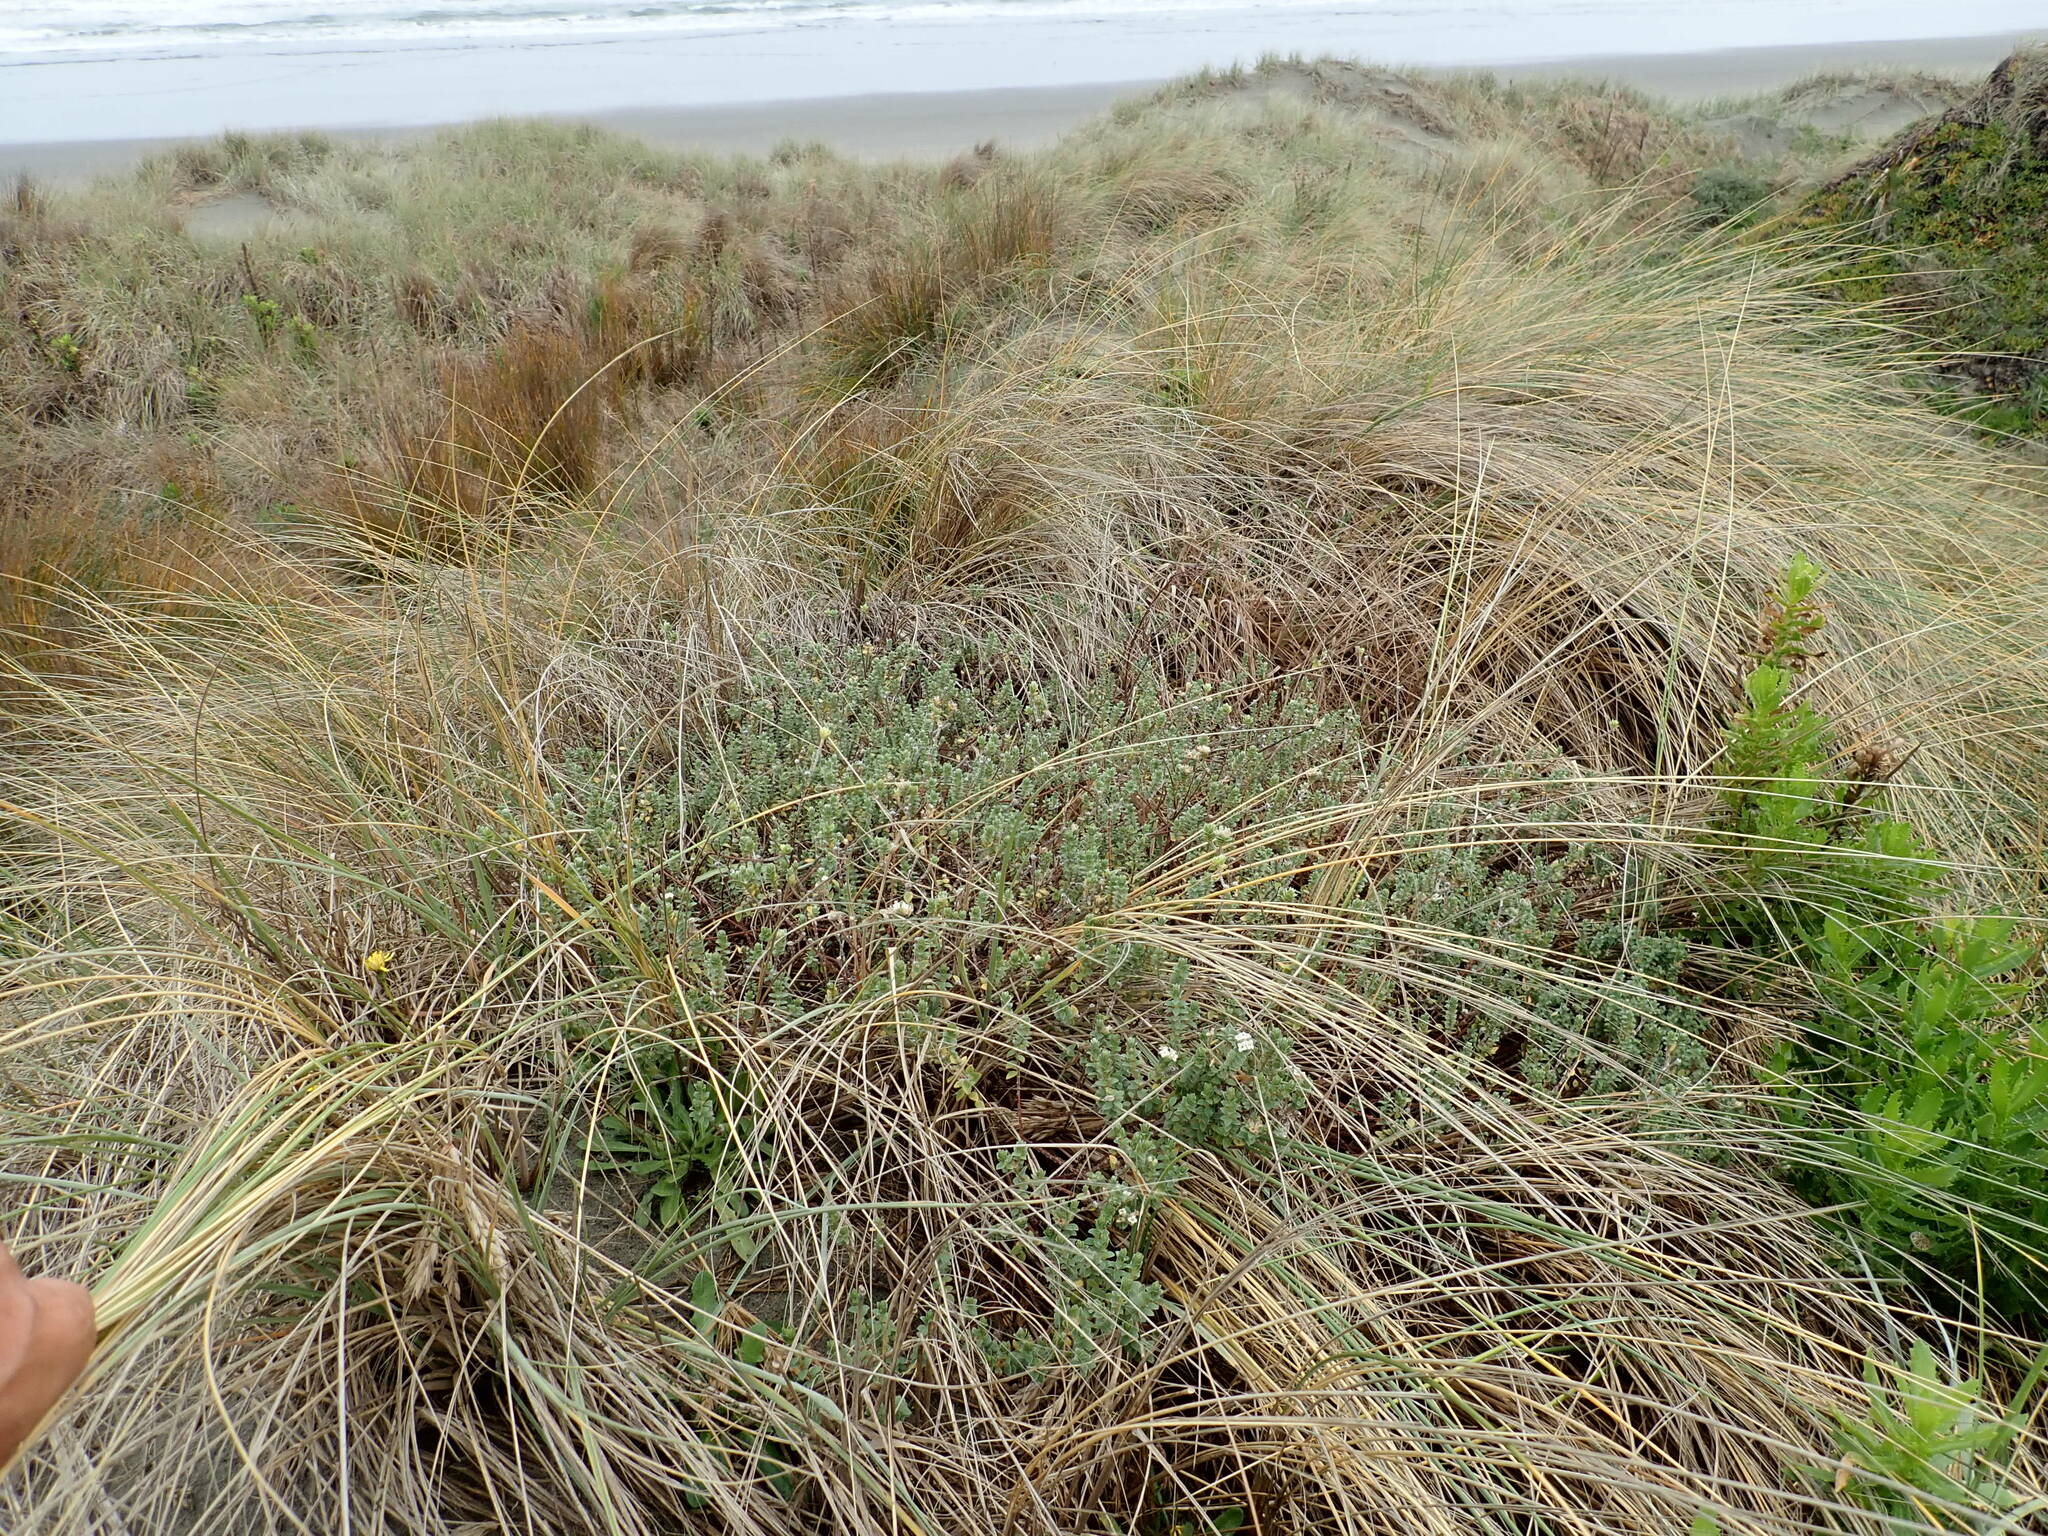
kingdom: Plantae
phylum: Tracheophyta
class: Magnoliopsida
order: Malvales
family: Thymelaeaceae
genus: Pimelea
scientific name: Pimelea villosa
